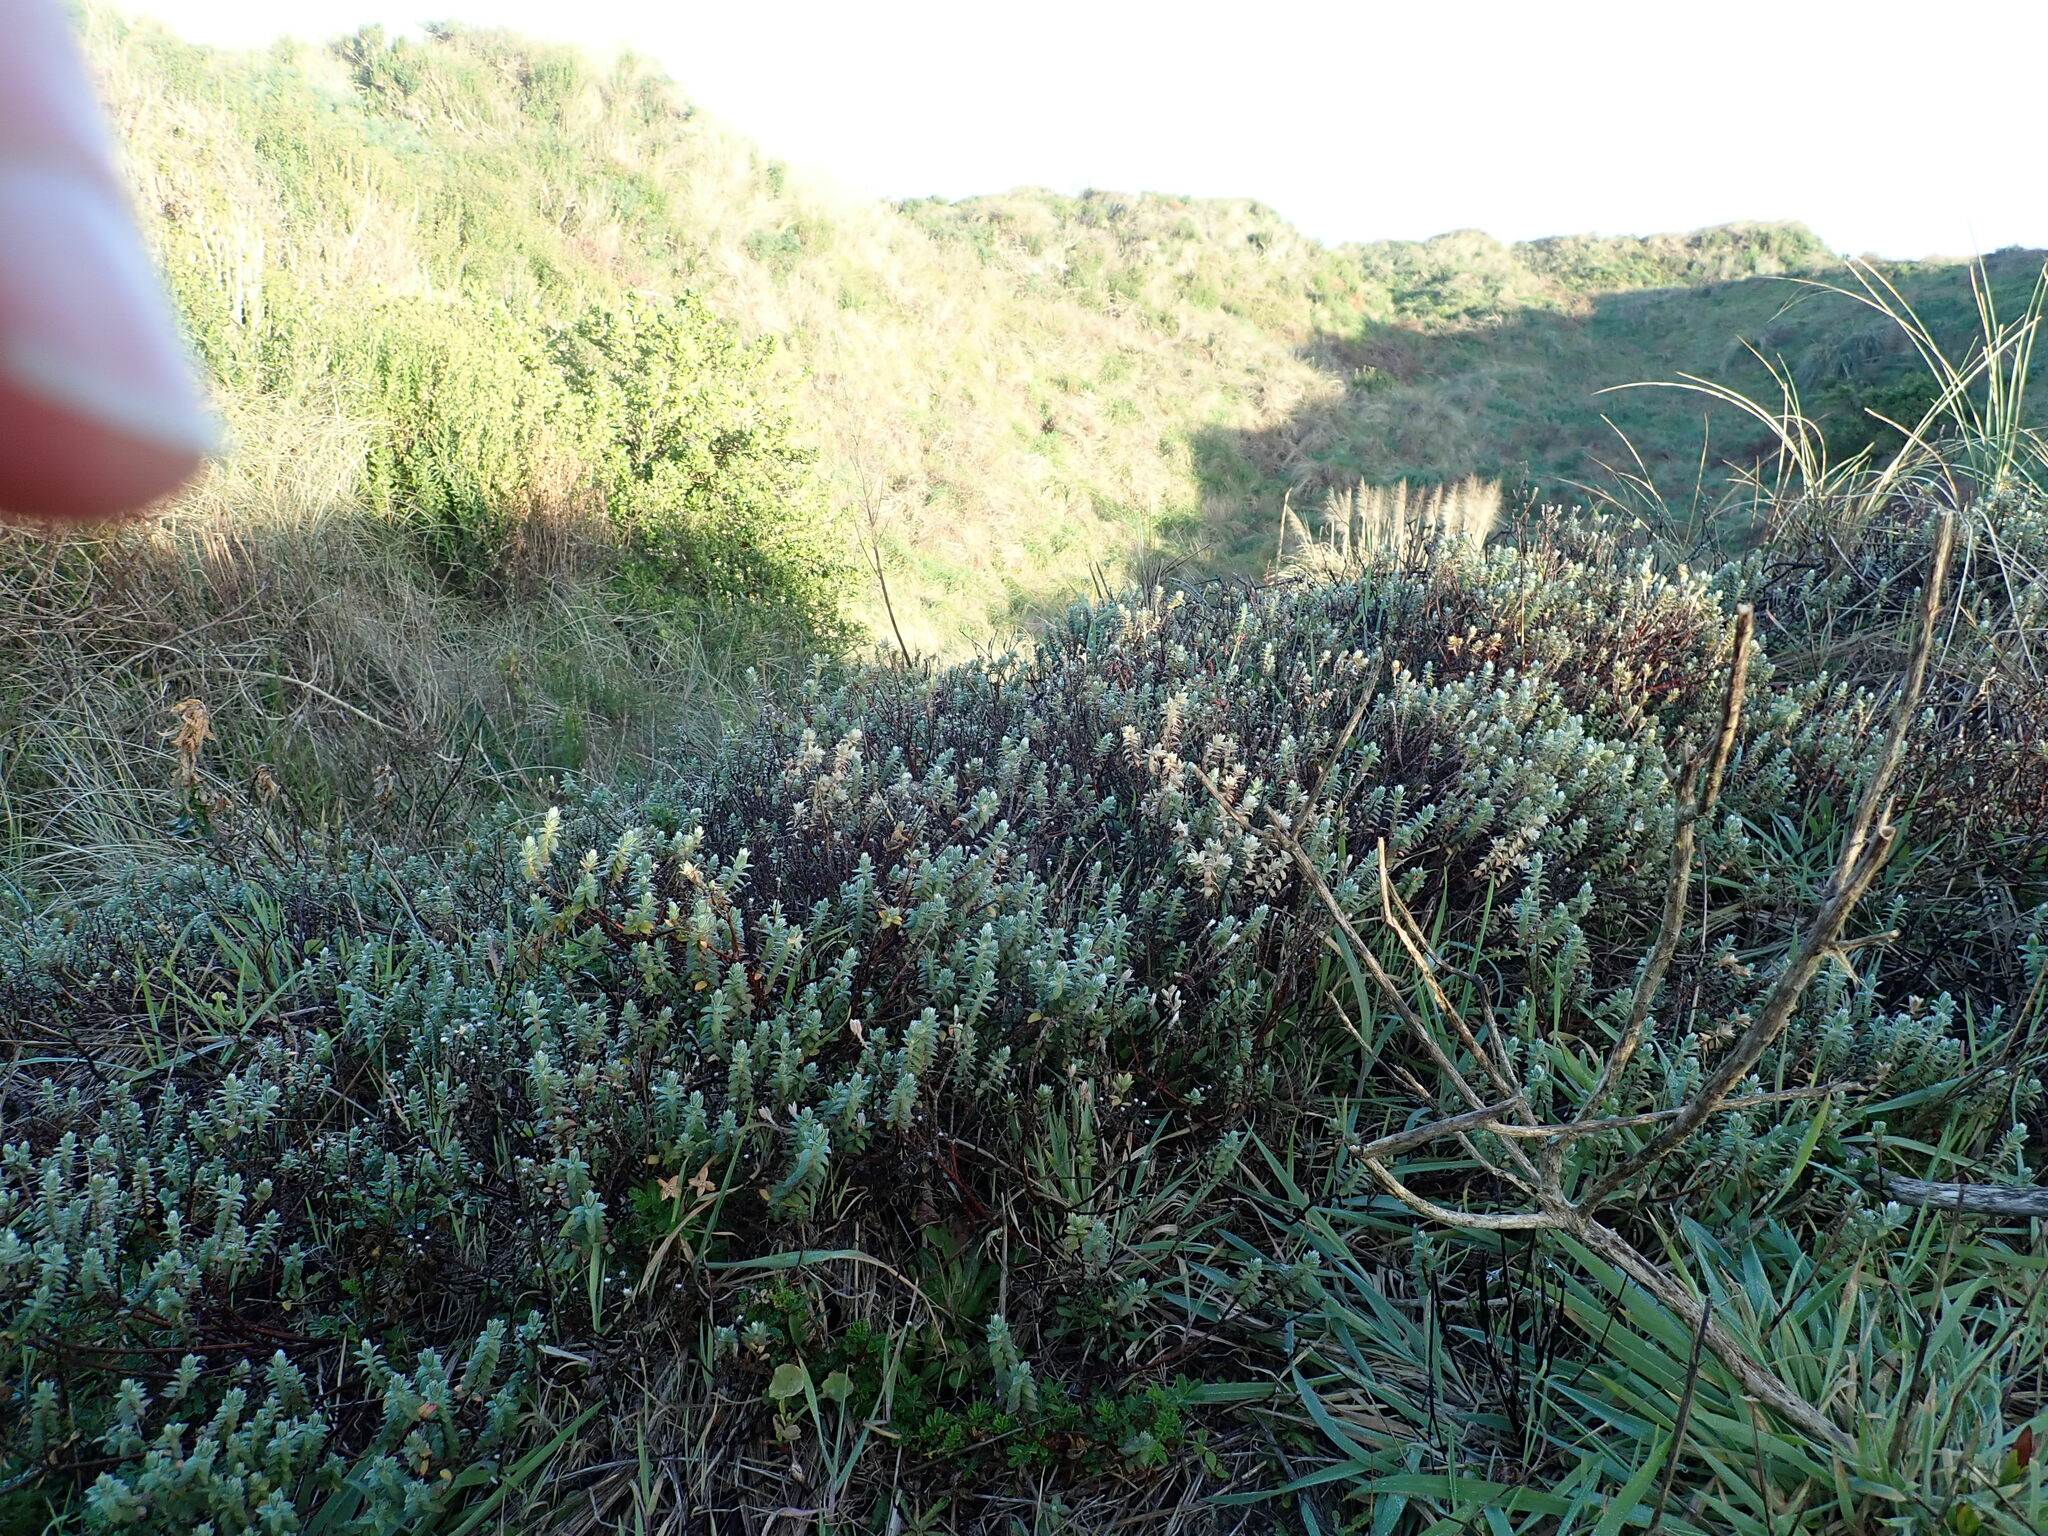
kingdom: Plantae
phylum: Tracheophyta
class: Magnoliopsida
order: Malvales
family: Thymelaeaceae
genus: Pimelea
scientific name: Pimelea villosa
